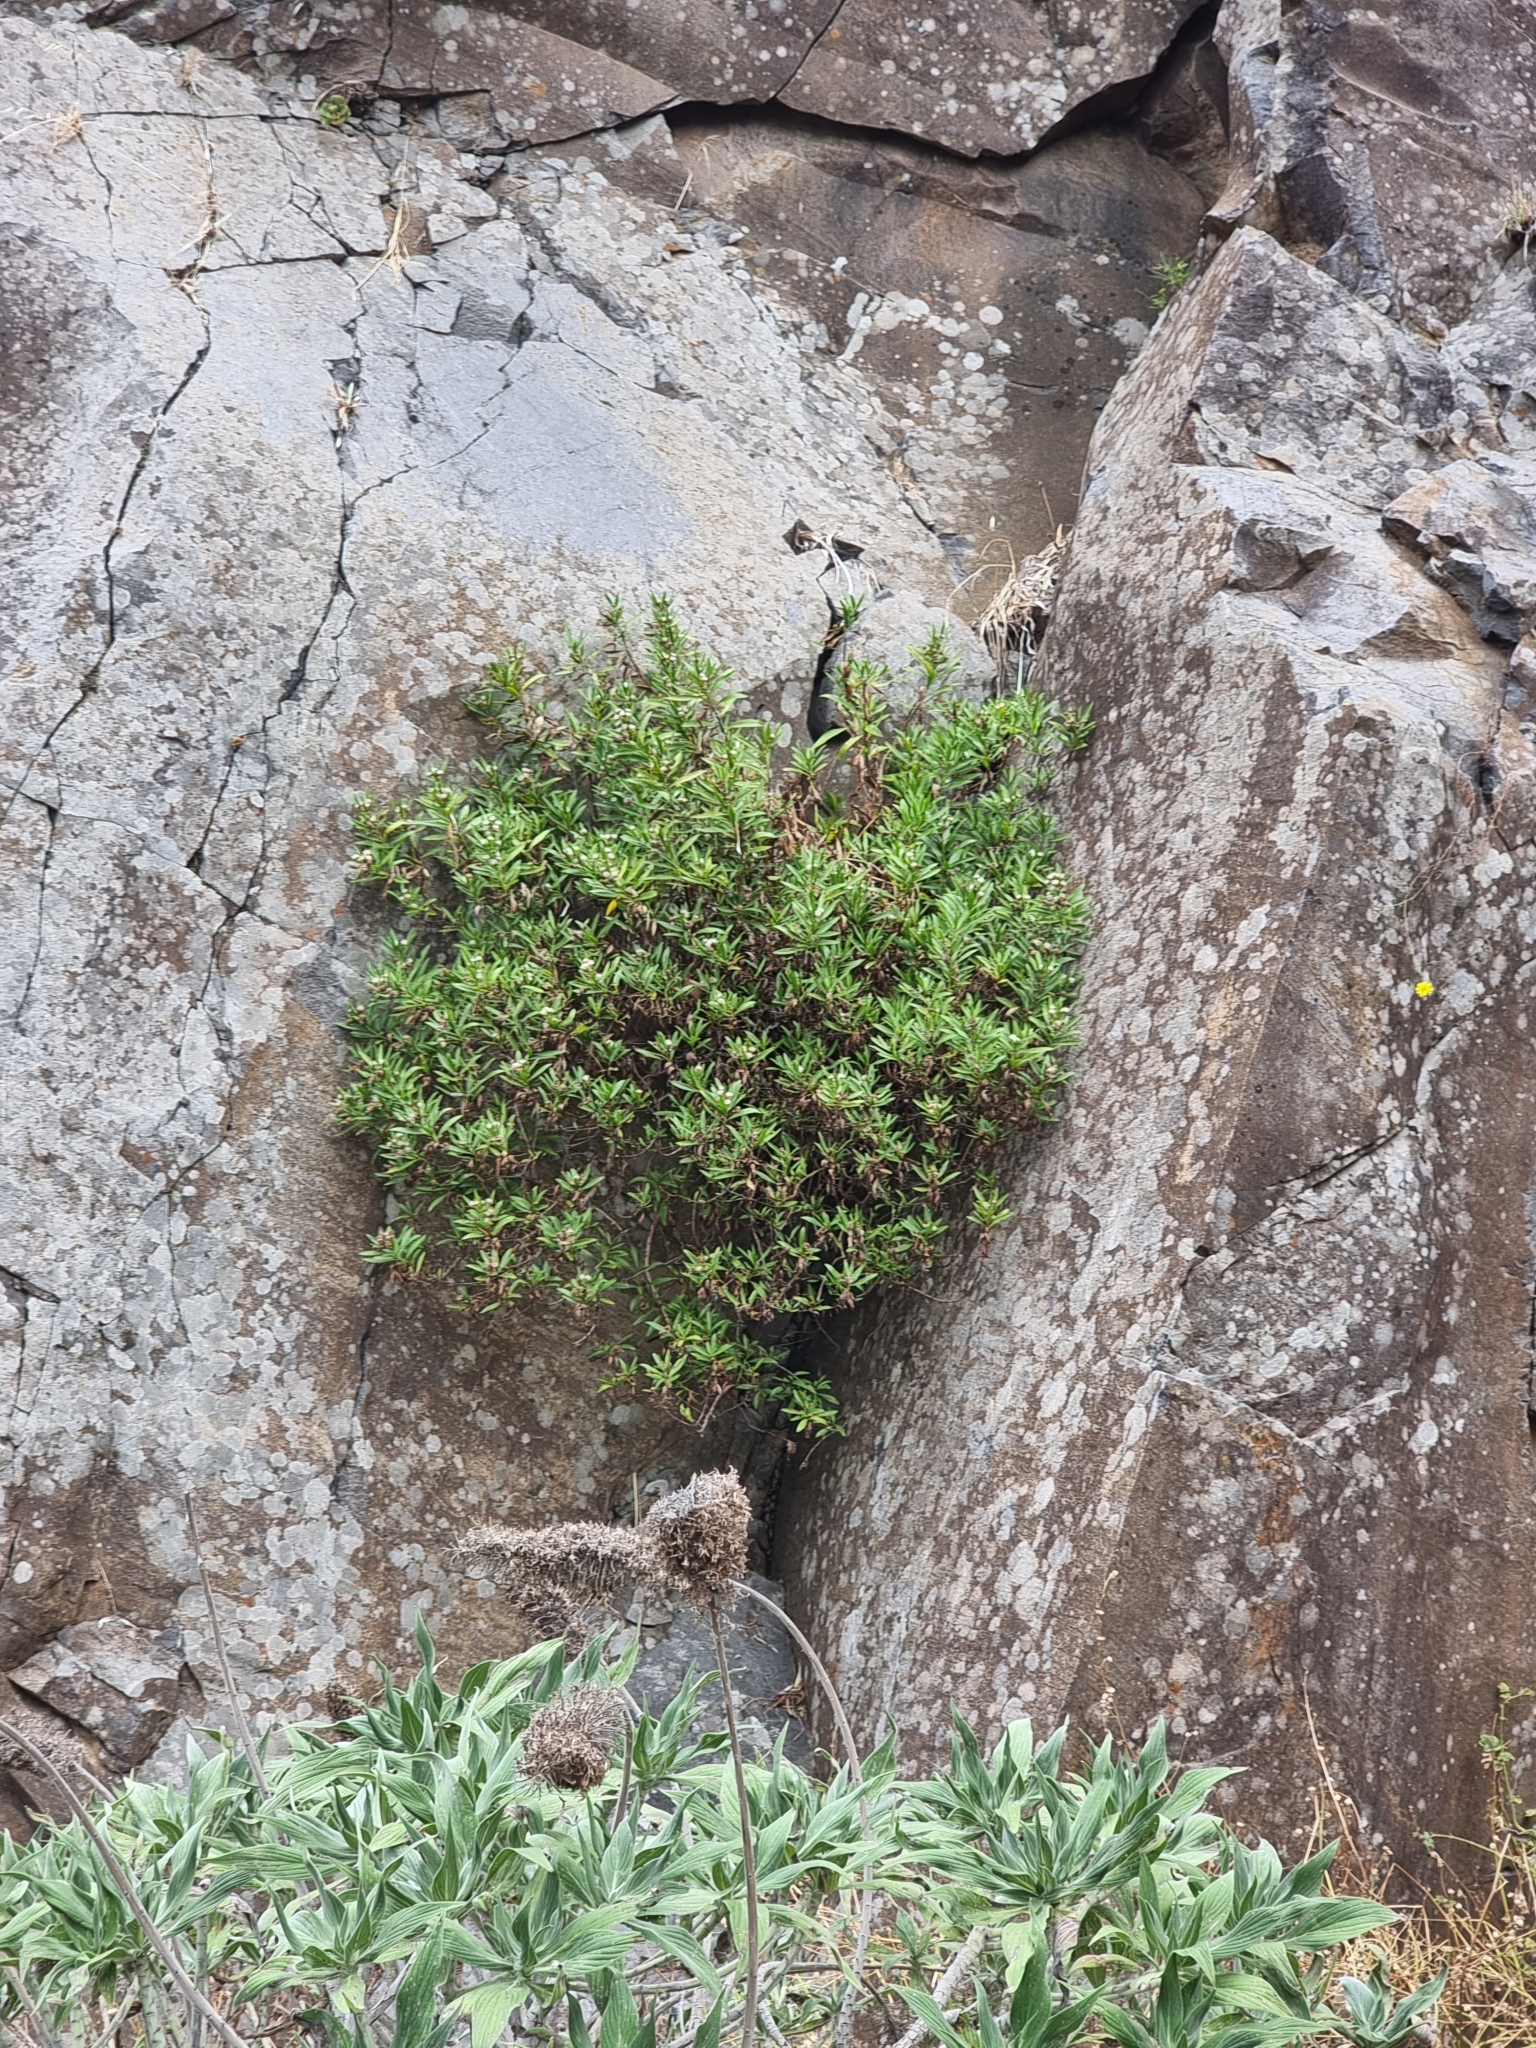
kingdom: Plantae
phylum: Tracheophyta
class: Magnoliopsida
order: Lamiales
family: Plantaginaceae
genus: Globularia
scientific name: Globularia salicina
